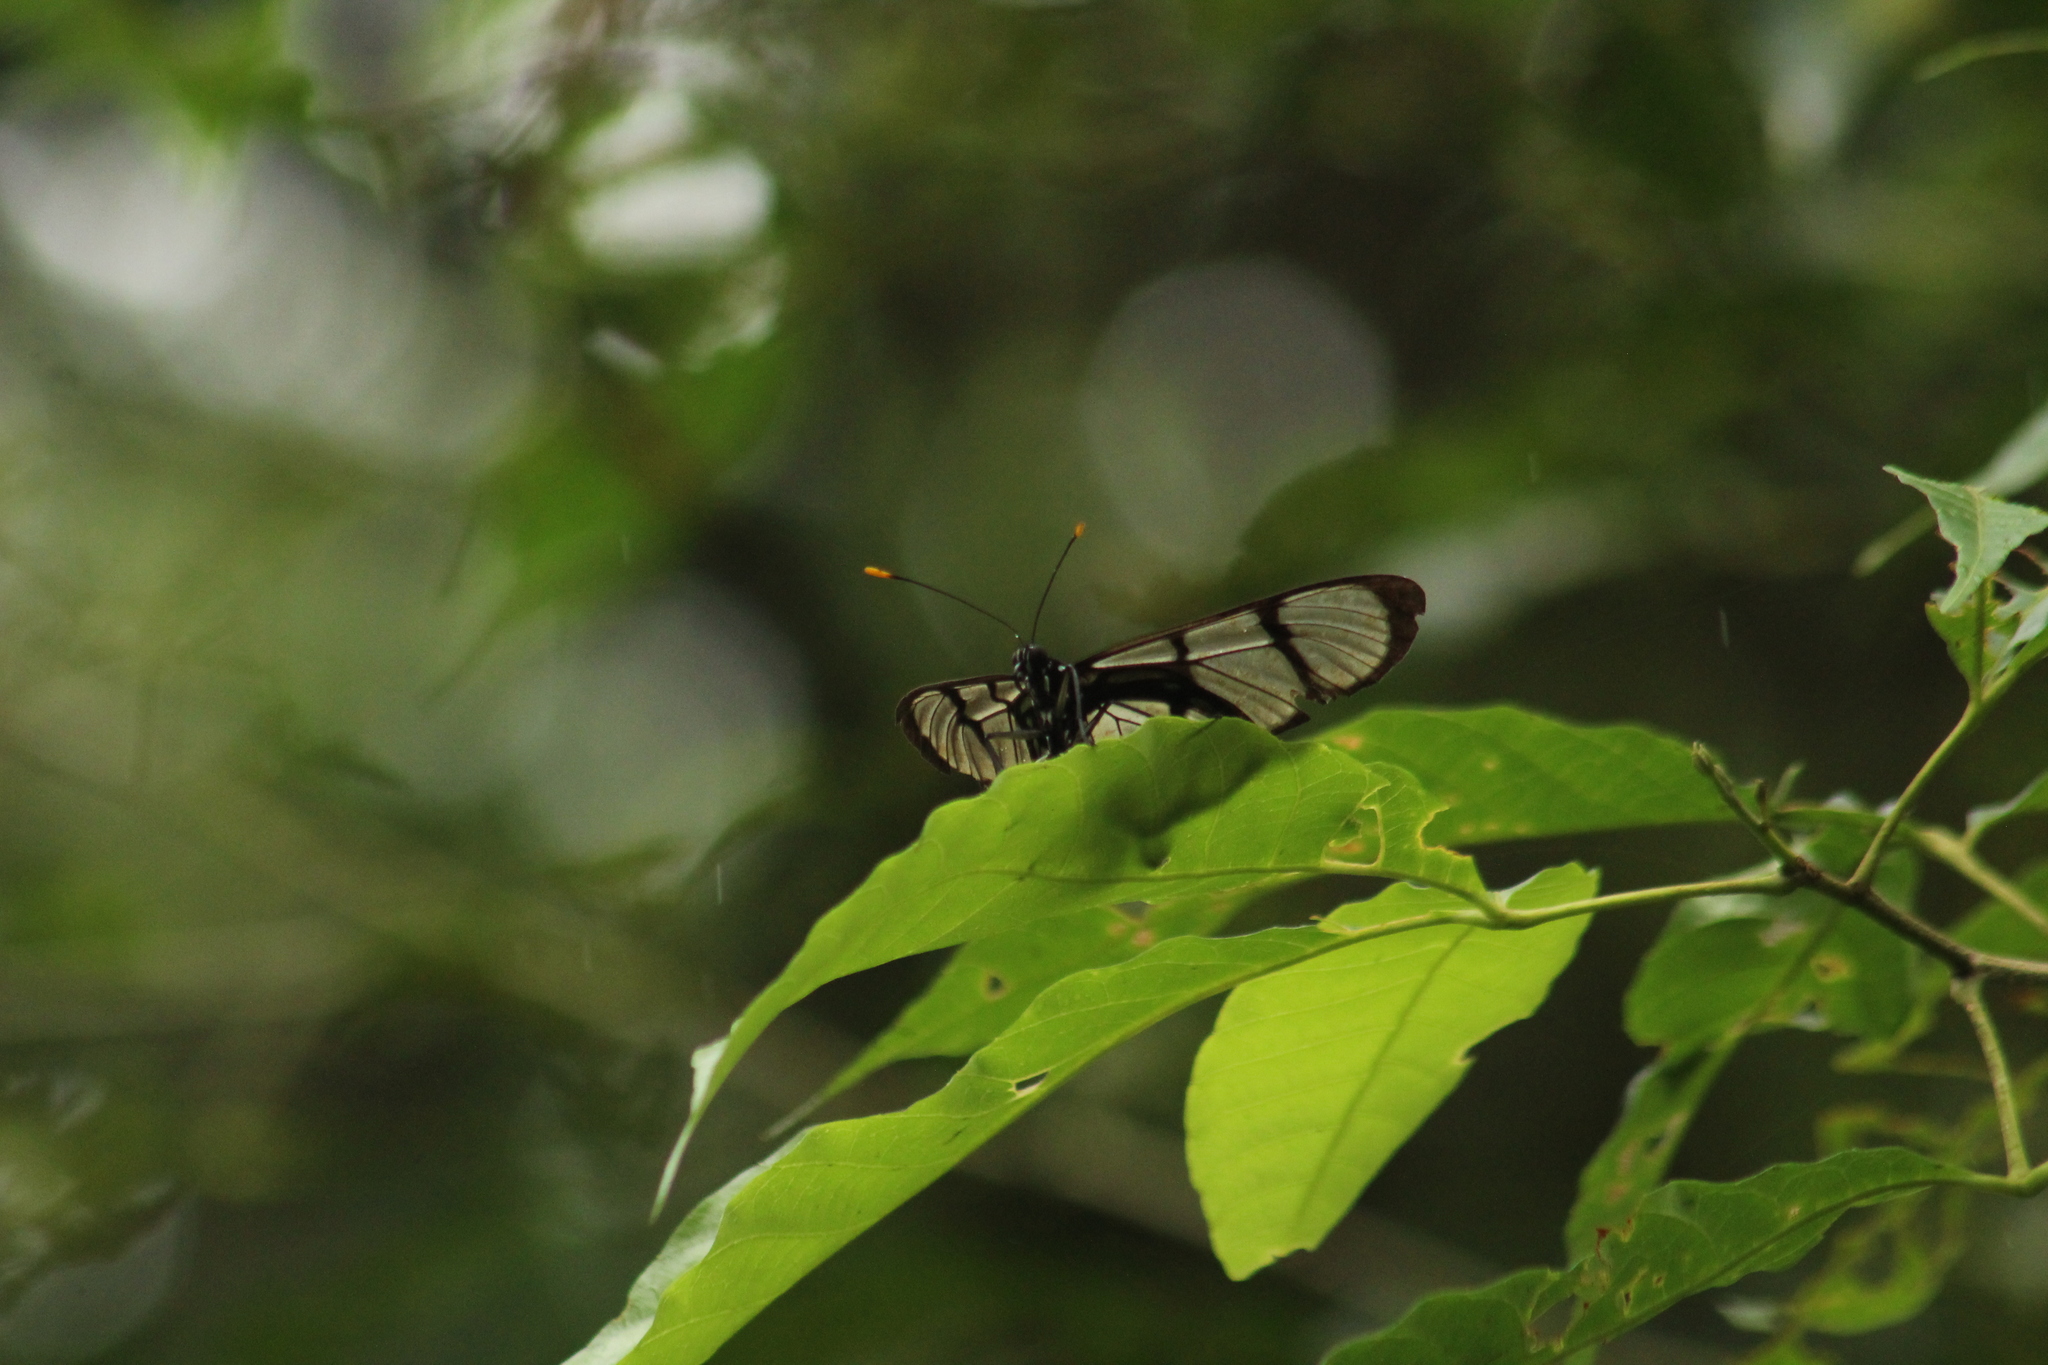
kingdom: Animalia
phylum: Arthropoda
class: Insecta
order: Lepidoptera
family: Nymphalidae
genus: Methona
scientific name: Methona confusa
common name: Confusa tigerwing
